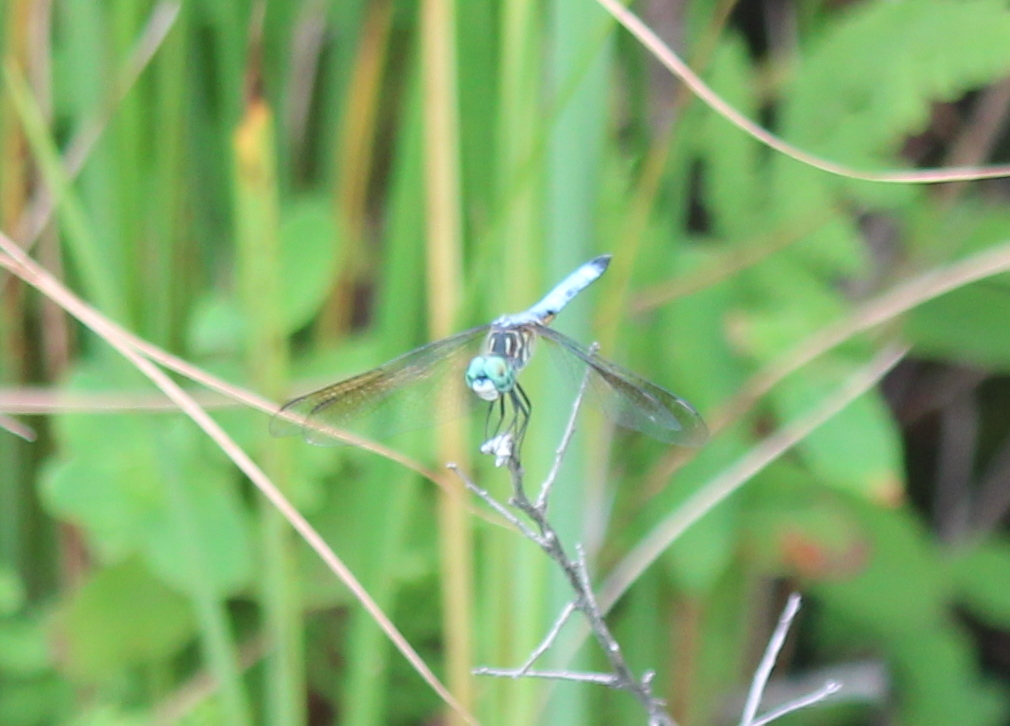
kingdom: Animalia
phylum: Arthropoda
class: Insecta
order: Odonata
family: Libellulidae
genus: Pachydiplax
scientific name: Pachydiplax longipennis
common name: Blue dasher
